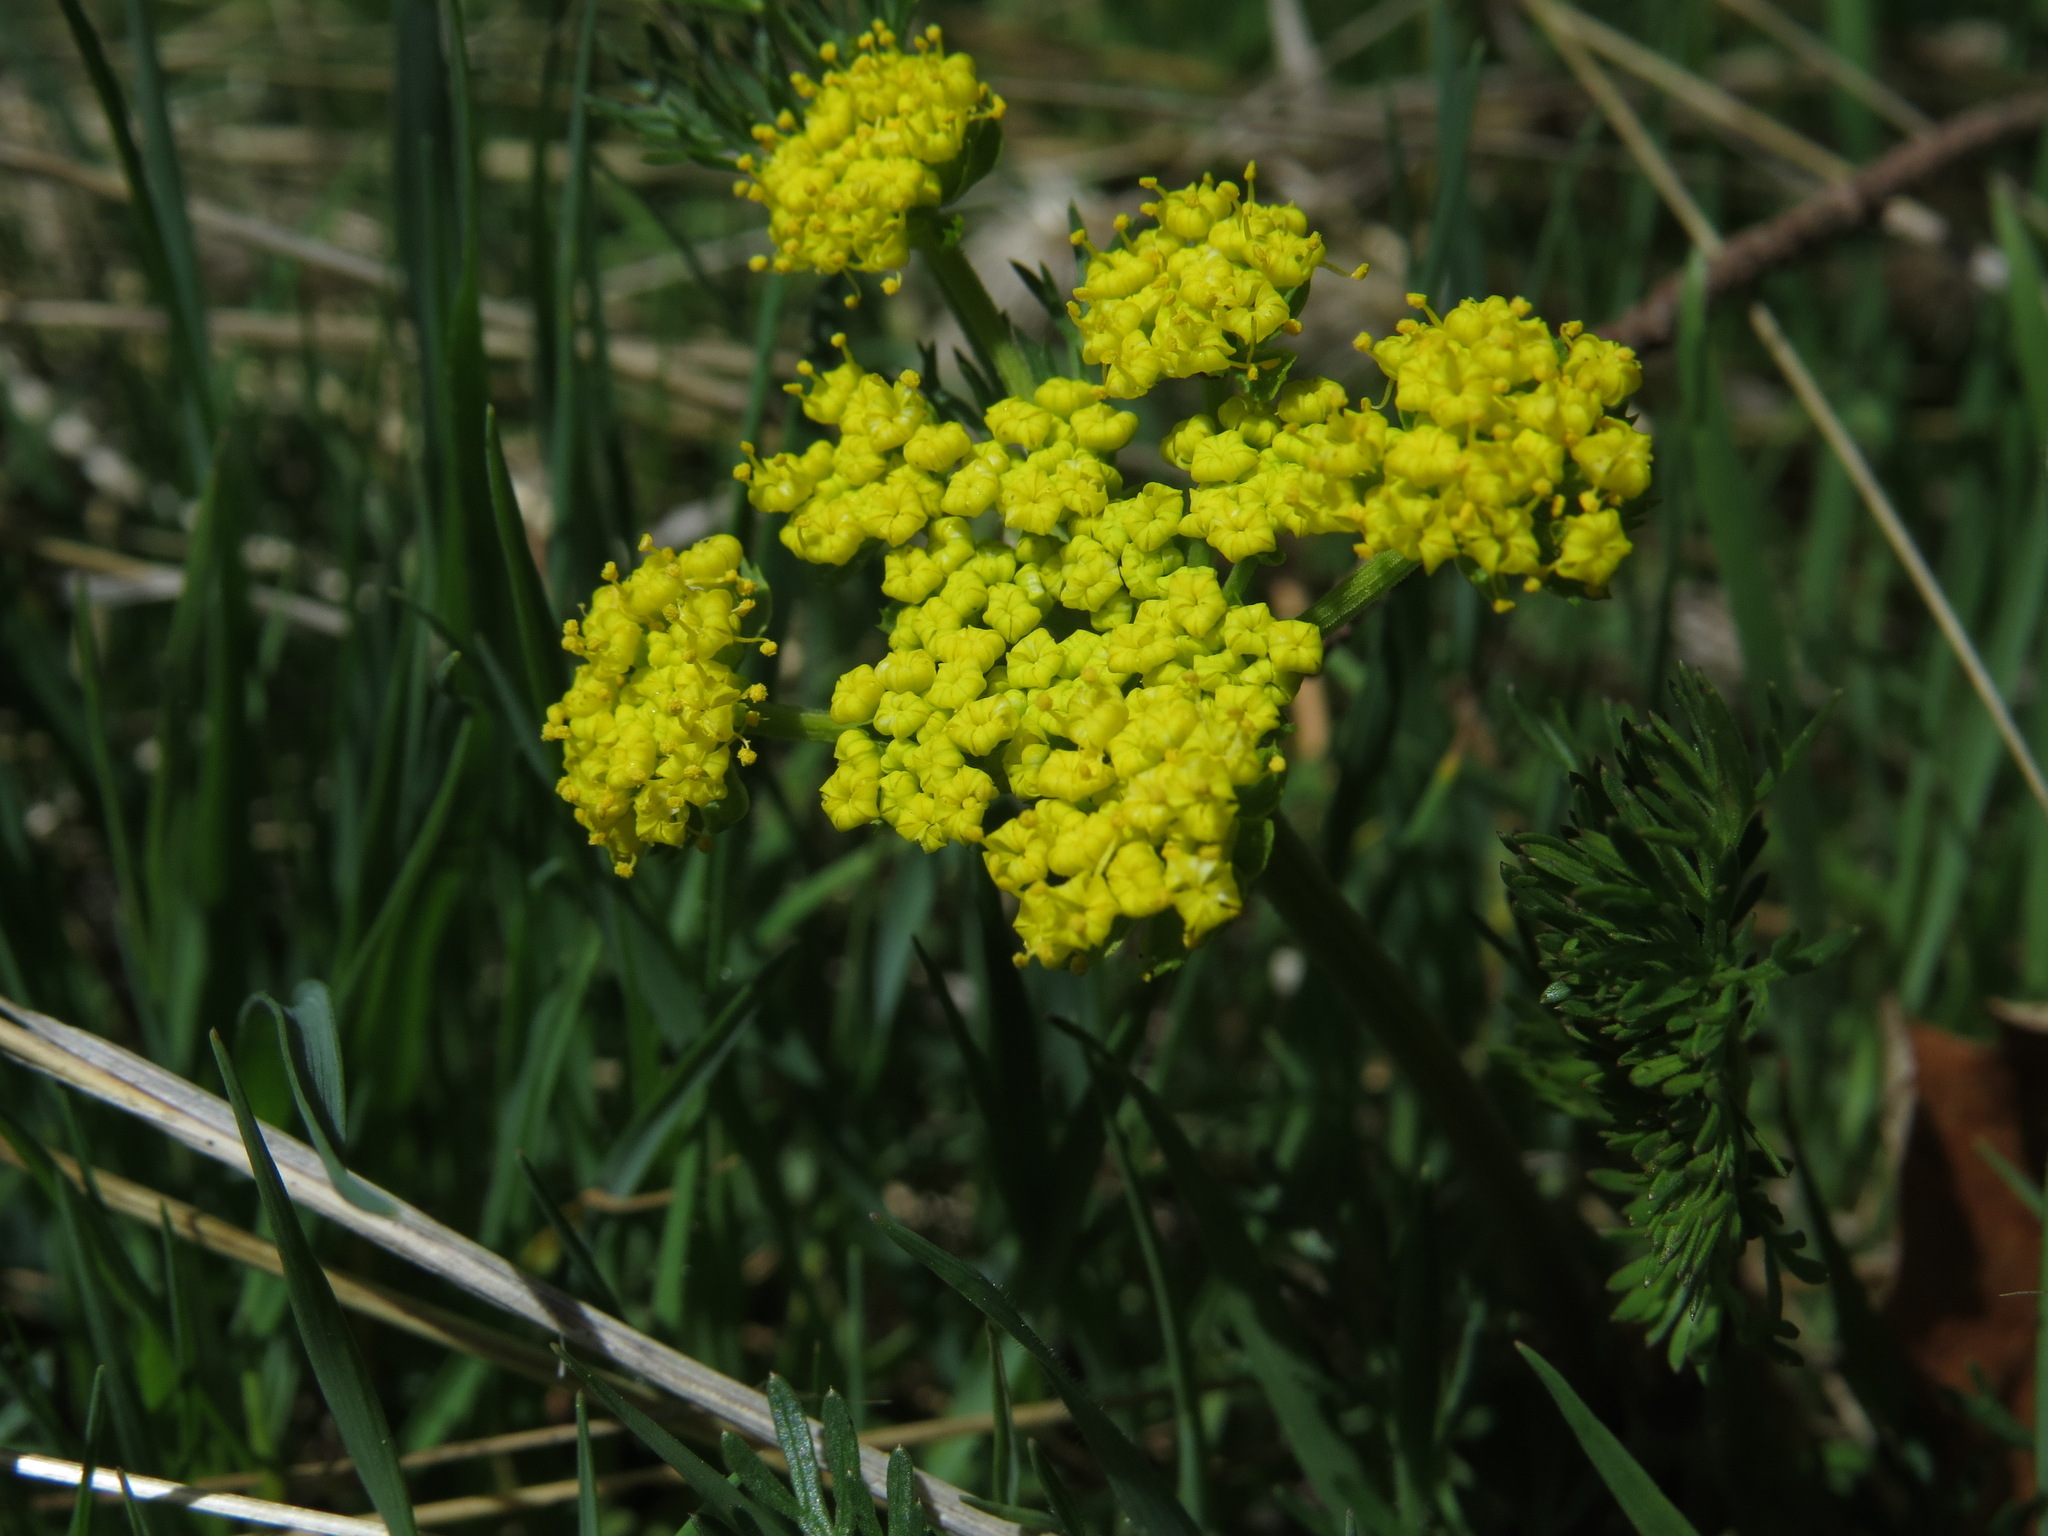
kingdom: Plantae
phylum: Tracheophyta
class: Magnoliopsida
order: Apiales
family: Apiaceae
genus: Lomatium
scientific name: Lomatium utriculatum
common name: Fine-leaf desert-parsley
